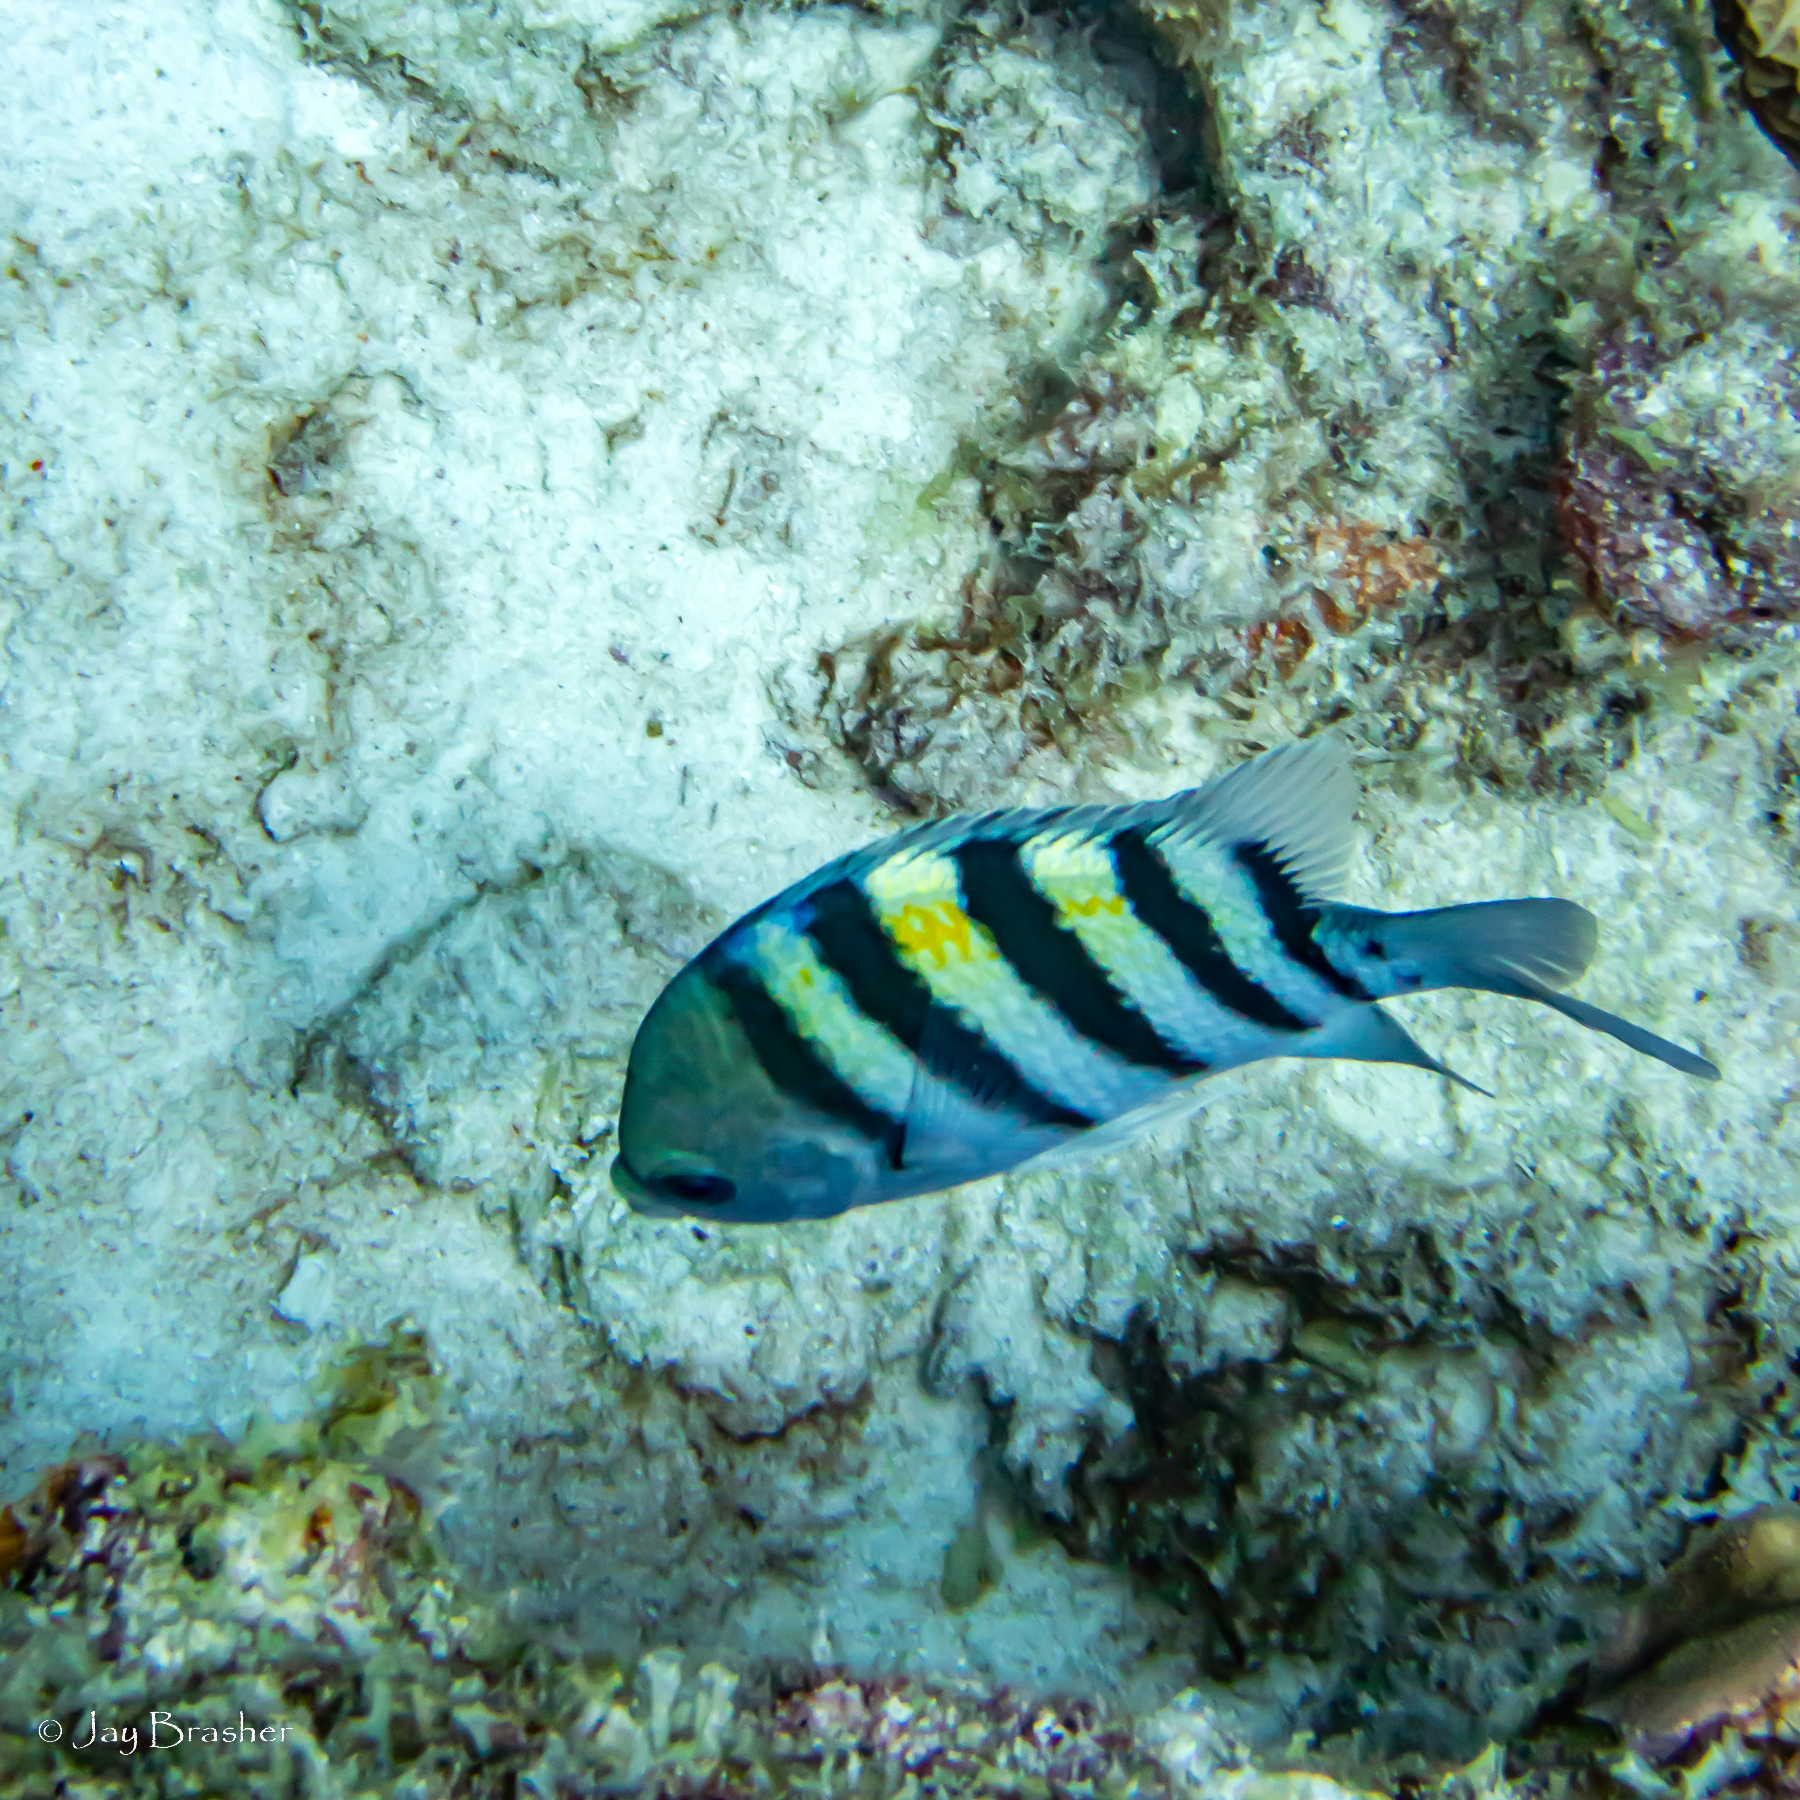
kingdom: Animalia
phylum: Chordata
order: Perciformes
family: Pomacentridae
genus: Abudefduf
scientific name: Abudefduf saxatilis
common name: Sergeant major
